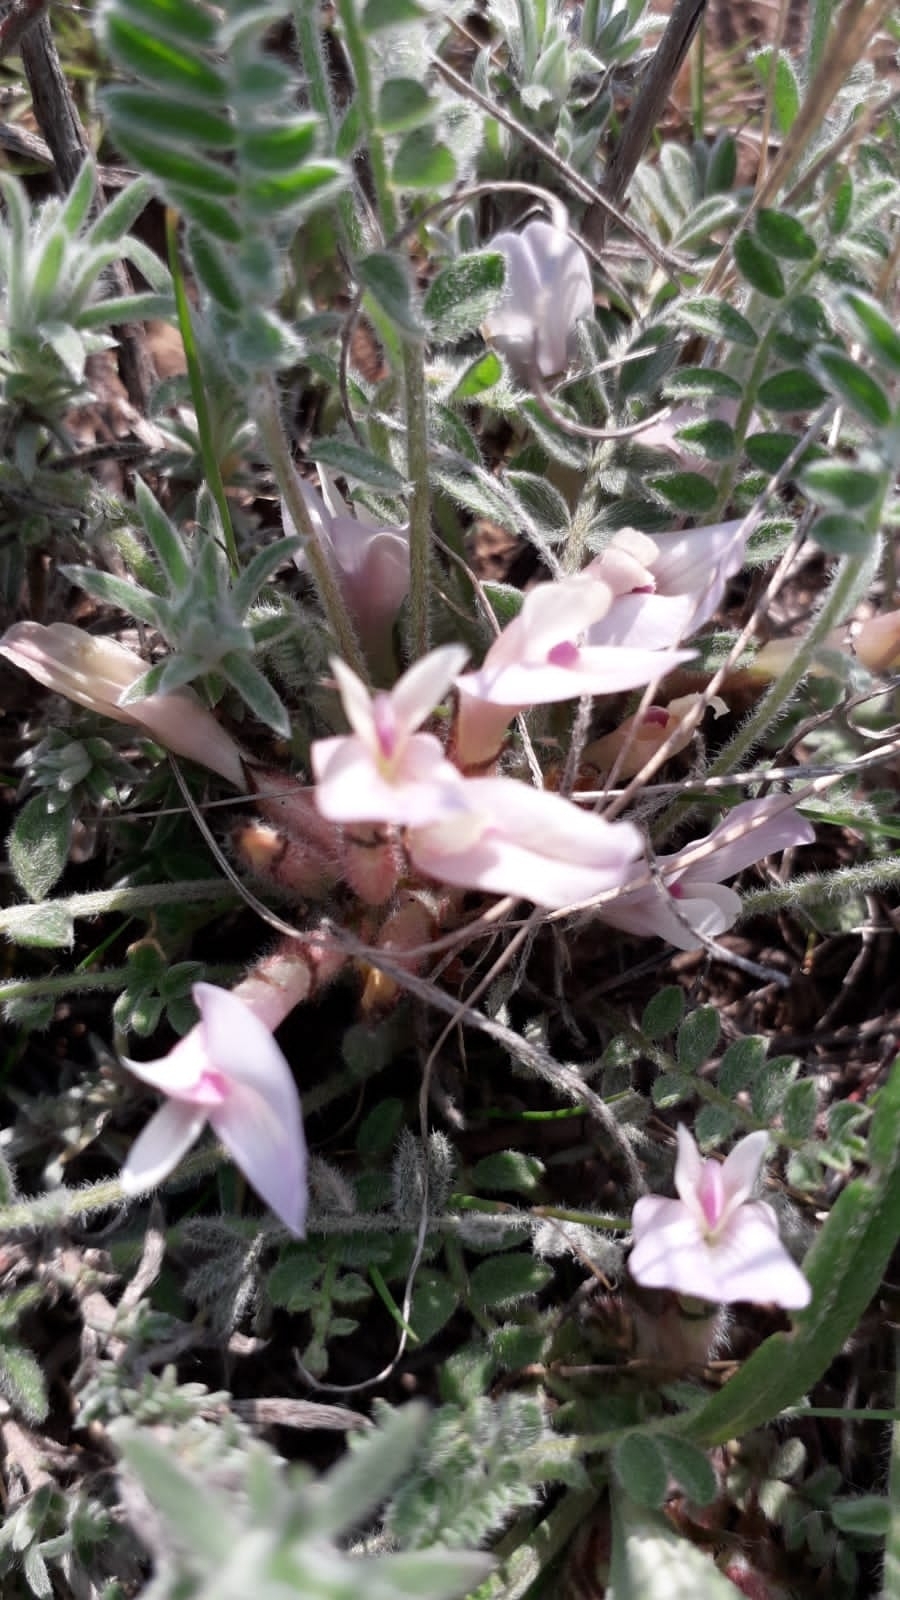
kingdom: Plantae
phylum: Tracheophyta
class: Magnoliopsida
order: Fabales
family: Fabaceae
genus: Astragalus
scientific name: Astragalus testiculatus
